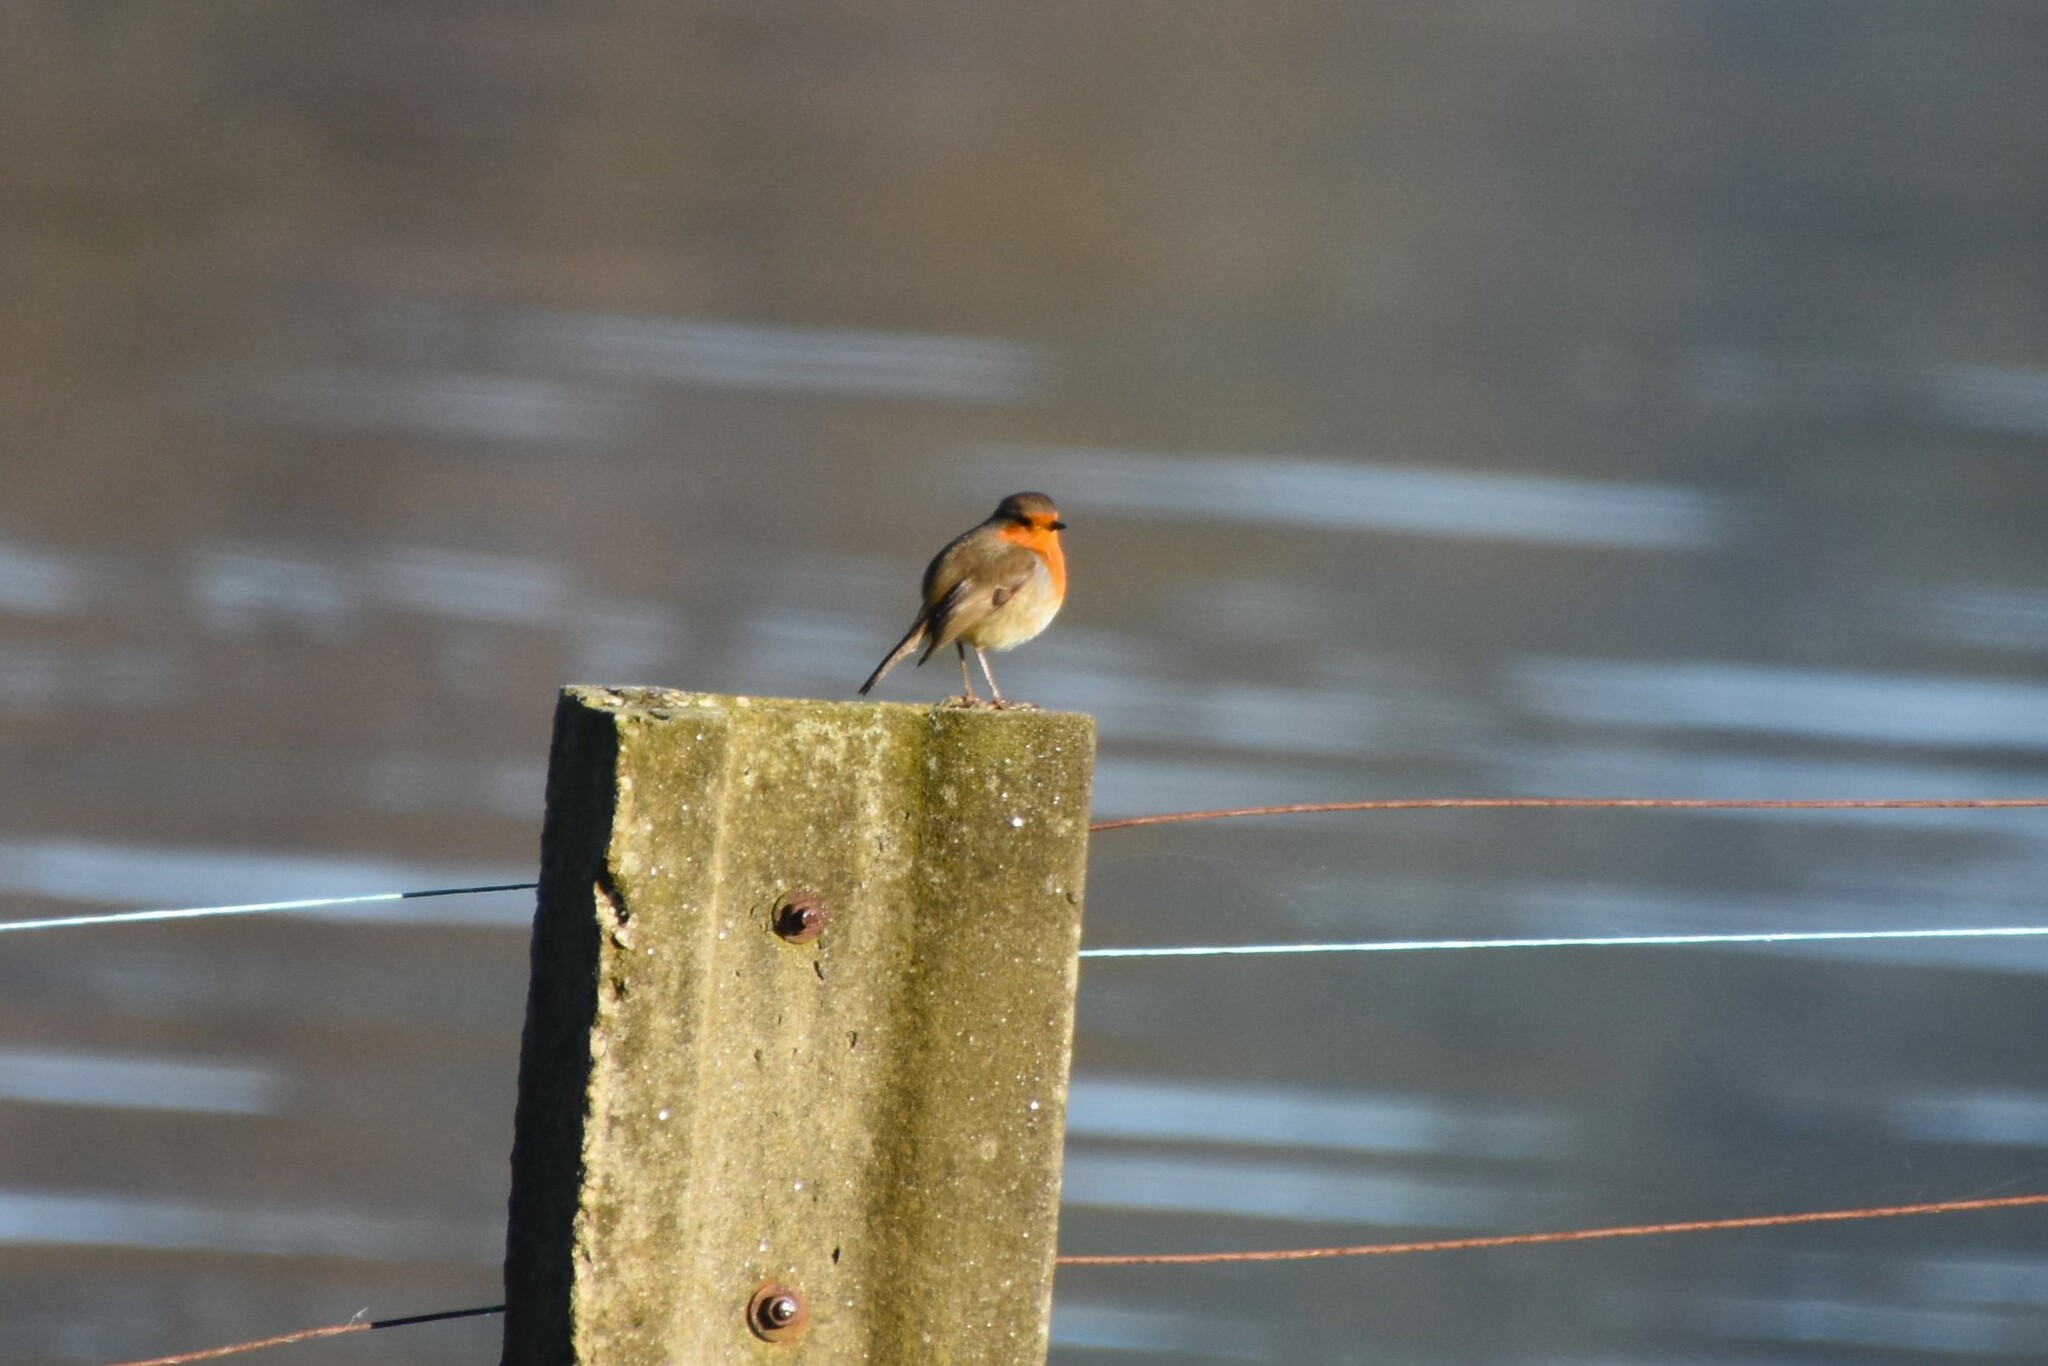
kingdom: Animalia
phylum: Chordata
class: Aves
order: Passeriformes
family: Muscicapidae
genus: Erithacus
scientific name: Erithacus rubecula
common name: European robin
